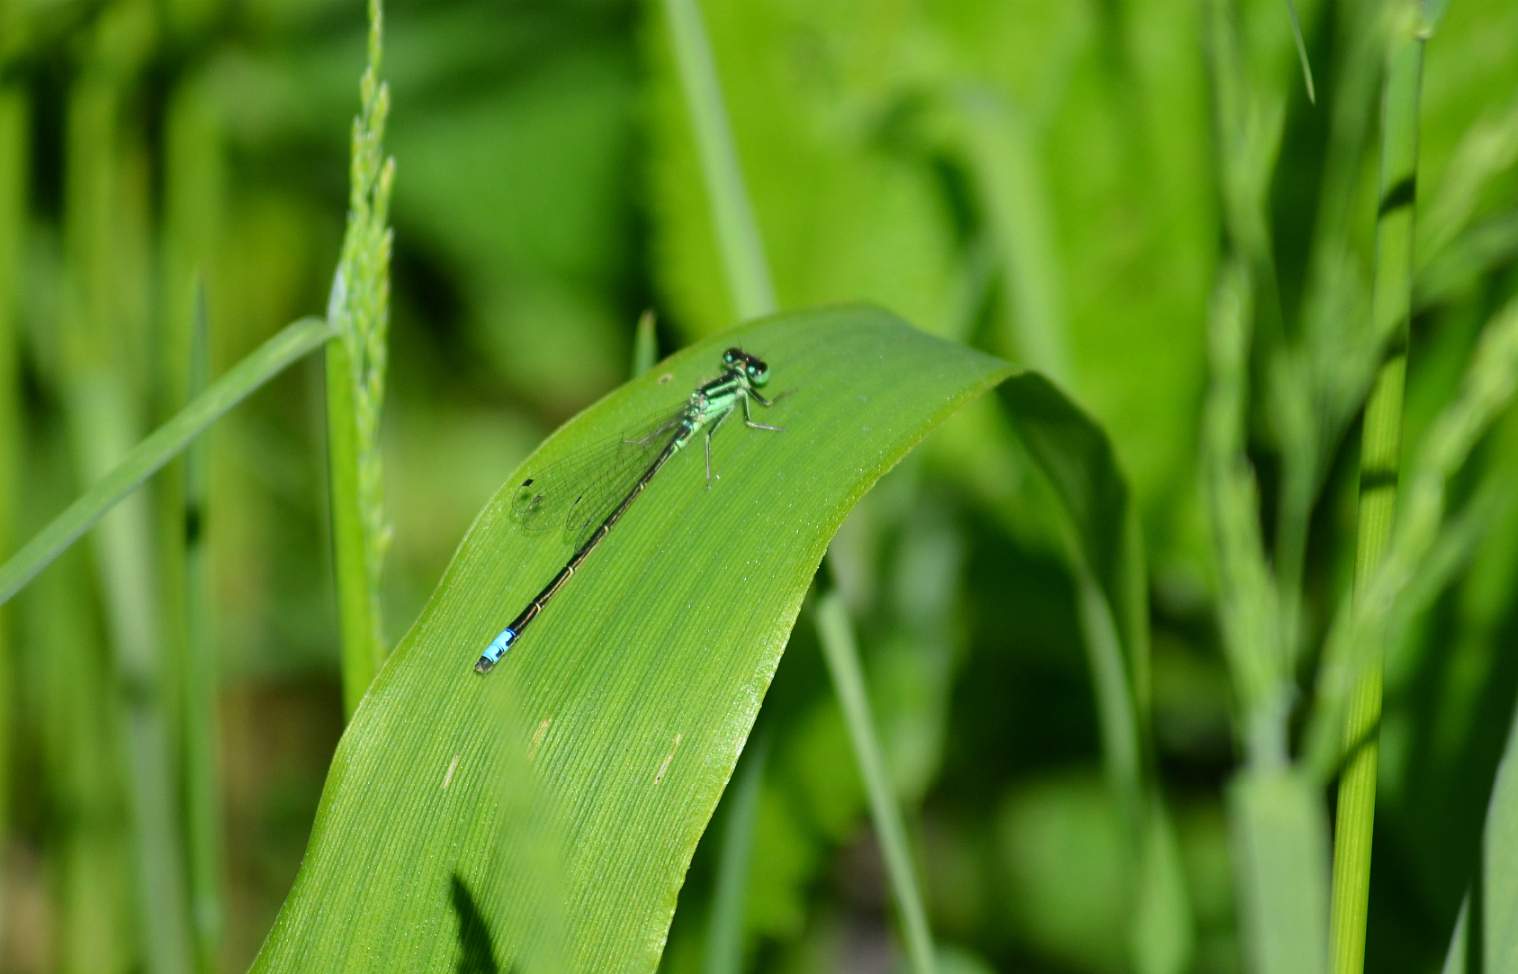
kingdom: Animalia
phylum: Arthropoda
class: Insecta
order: Odonata
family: Coenagrionidae
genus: Ischnura
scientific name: Ischnura verticalis
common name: Eastern forktail
